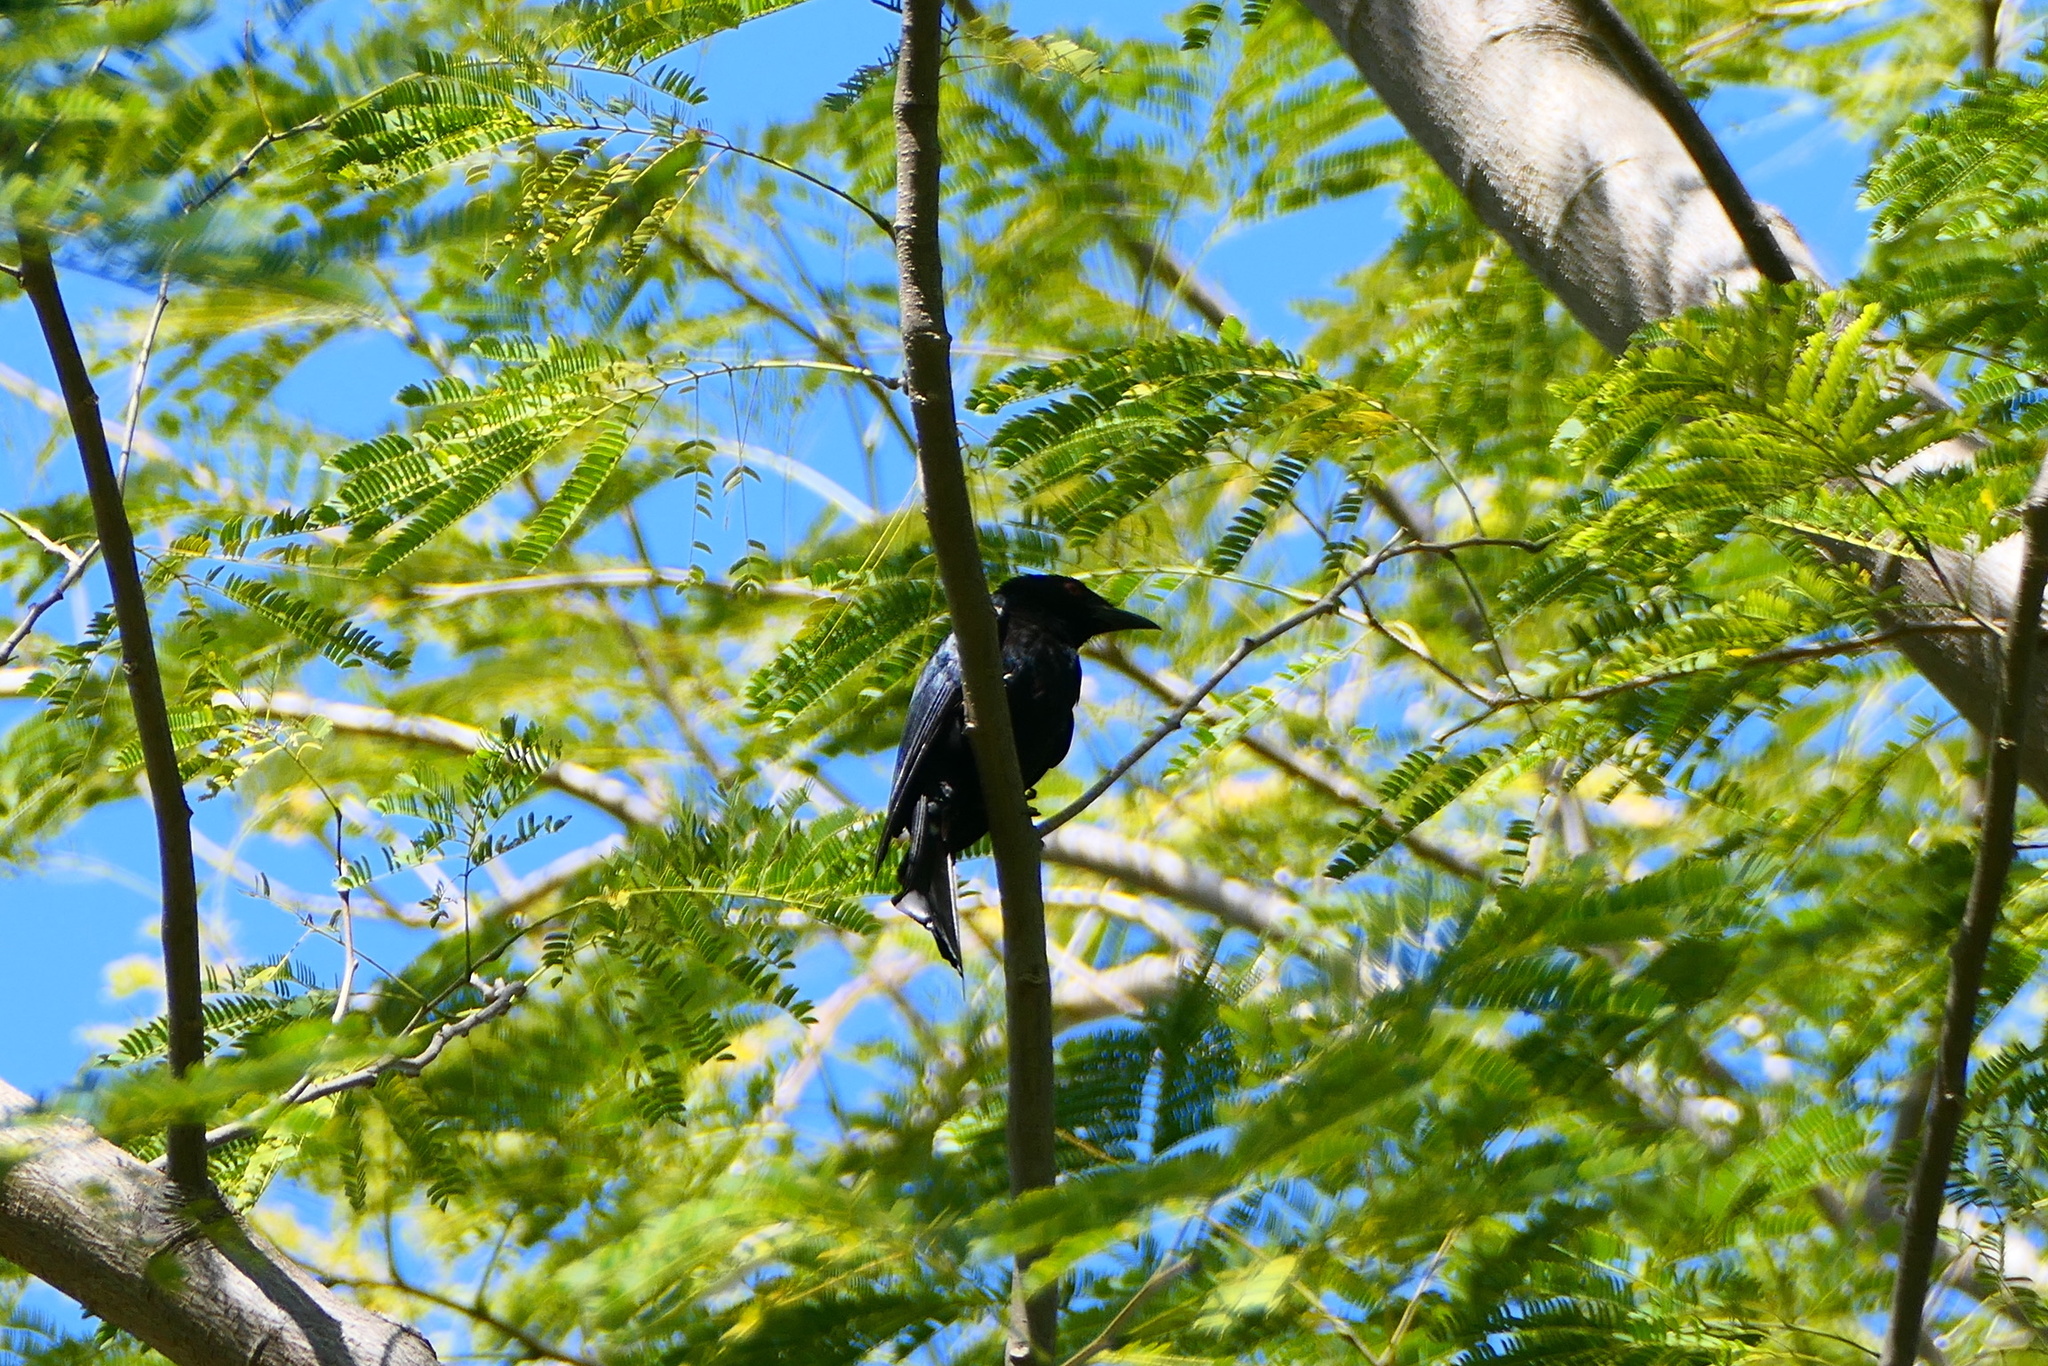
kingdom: Animalia
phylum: Chordata
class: Aves
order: Passeriformes
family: Dicruridae
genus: Dicrurus
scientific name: Dicrurus bracteatus
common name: Spangled drongo
